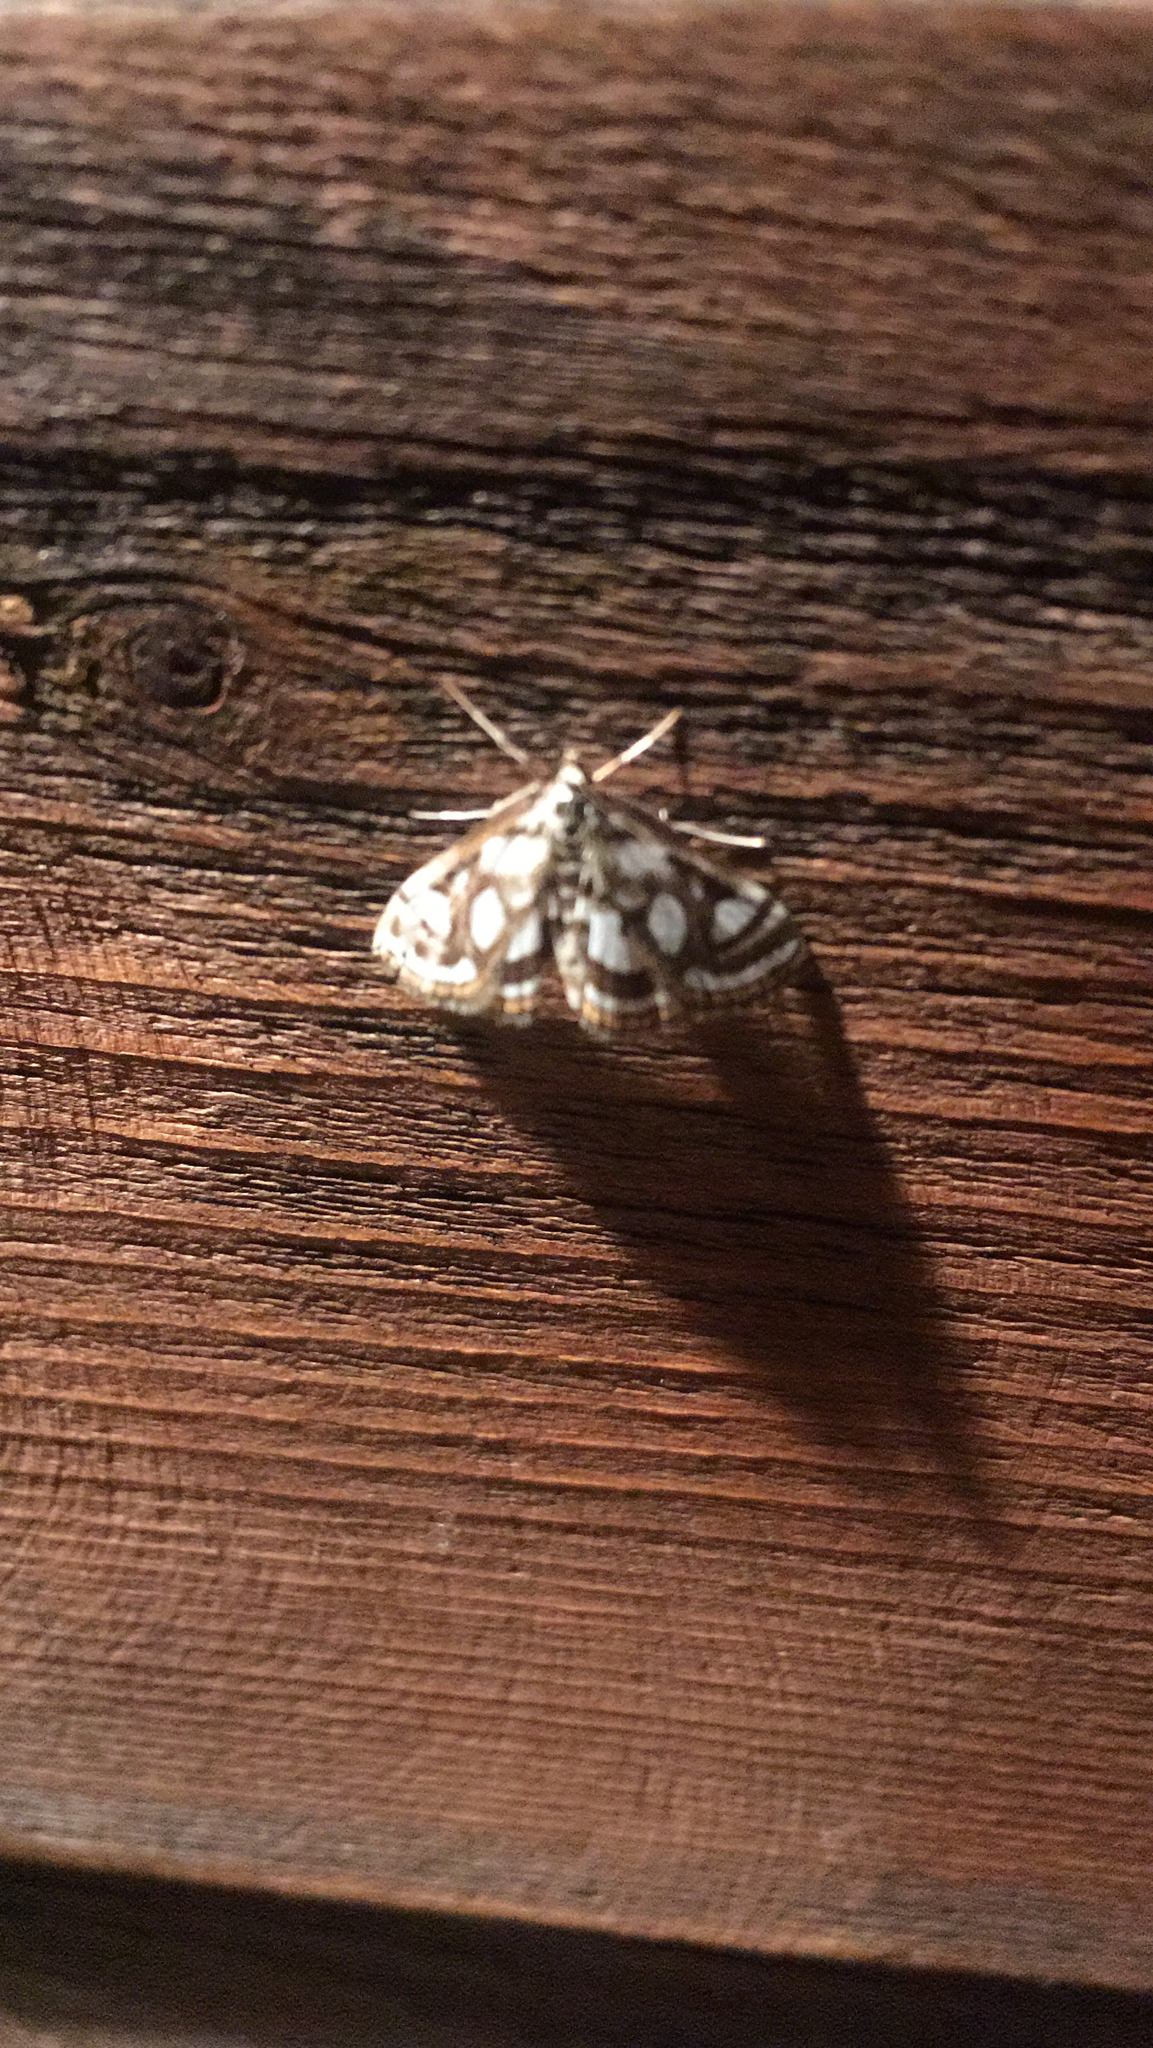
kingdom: Animalia
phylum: Arthropoda
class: Insecta
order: Lepidoptera
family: Crambidae
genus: Nymphula
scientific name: Nymphula nitidulata
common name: Beautiful china mark
